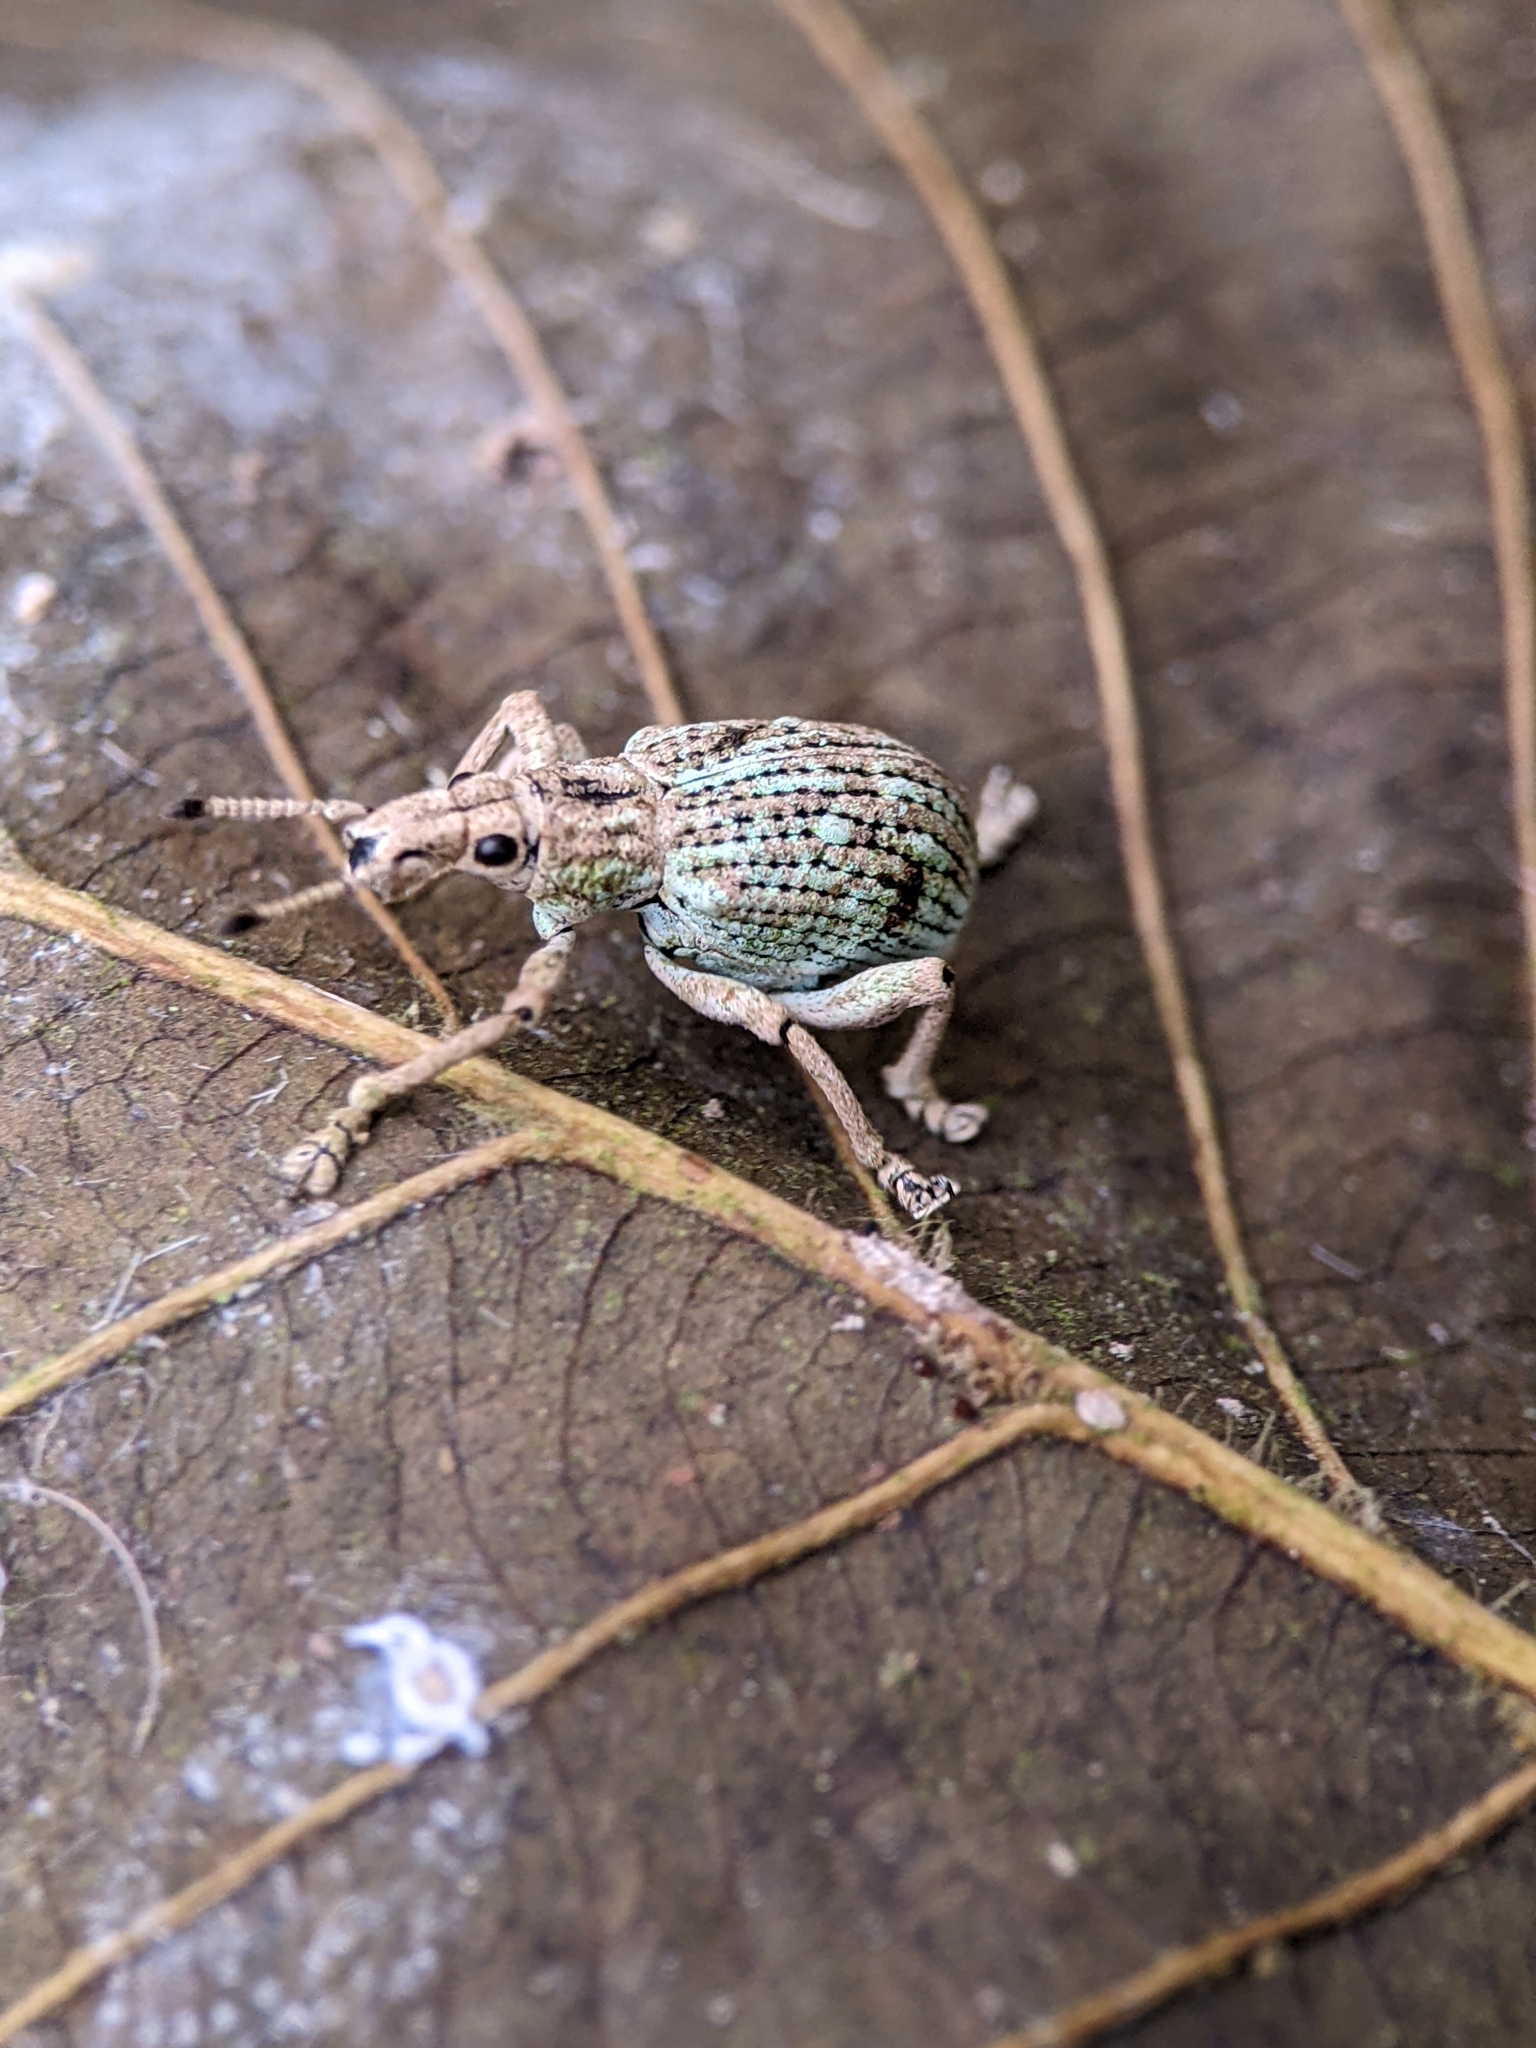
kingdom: Animalia
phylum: Arthropoda
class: Insecta
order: Coleoptera
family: Curculionidae
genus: Dermatoxenus
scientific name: Dermatoxenus hians
